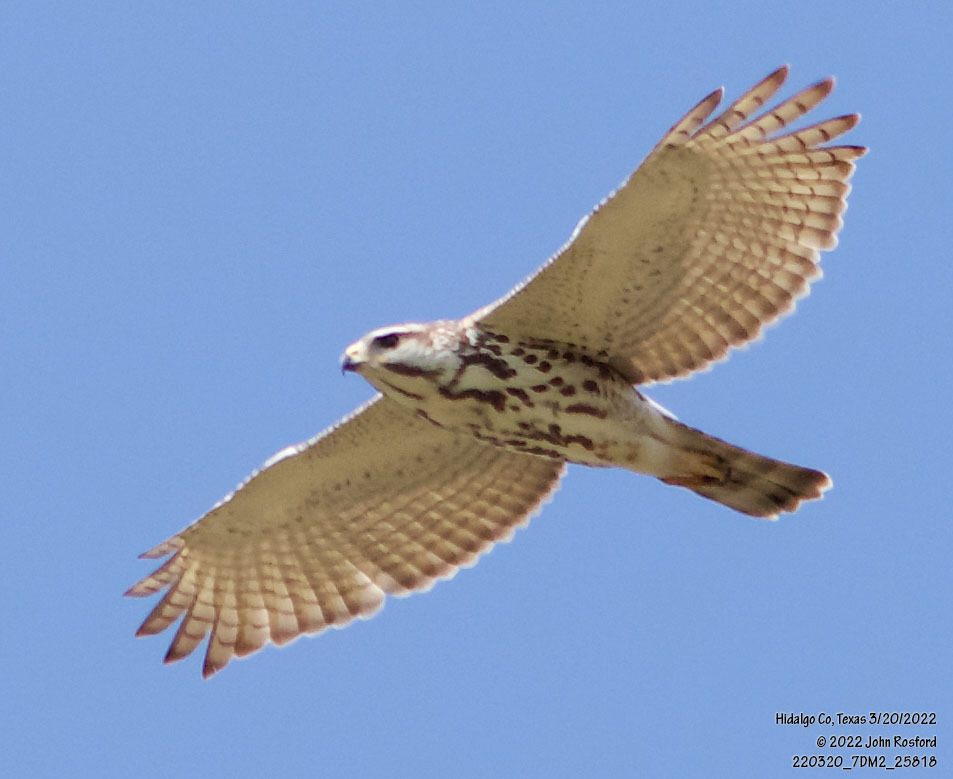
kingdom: Animalia
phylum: Chordata
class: Aves
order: Accipitriformes
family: Accipitridae
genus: Buteo
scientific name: Buteo nitidus
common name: Grey-lined hawk
